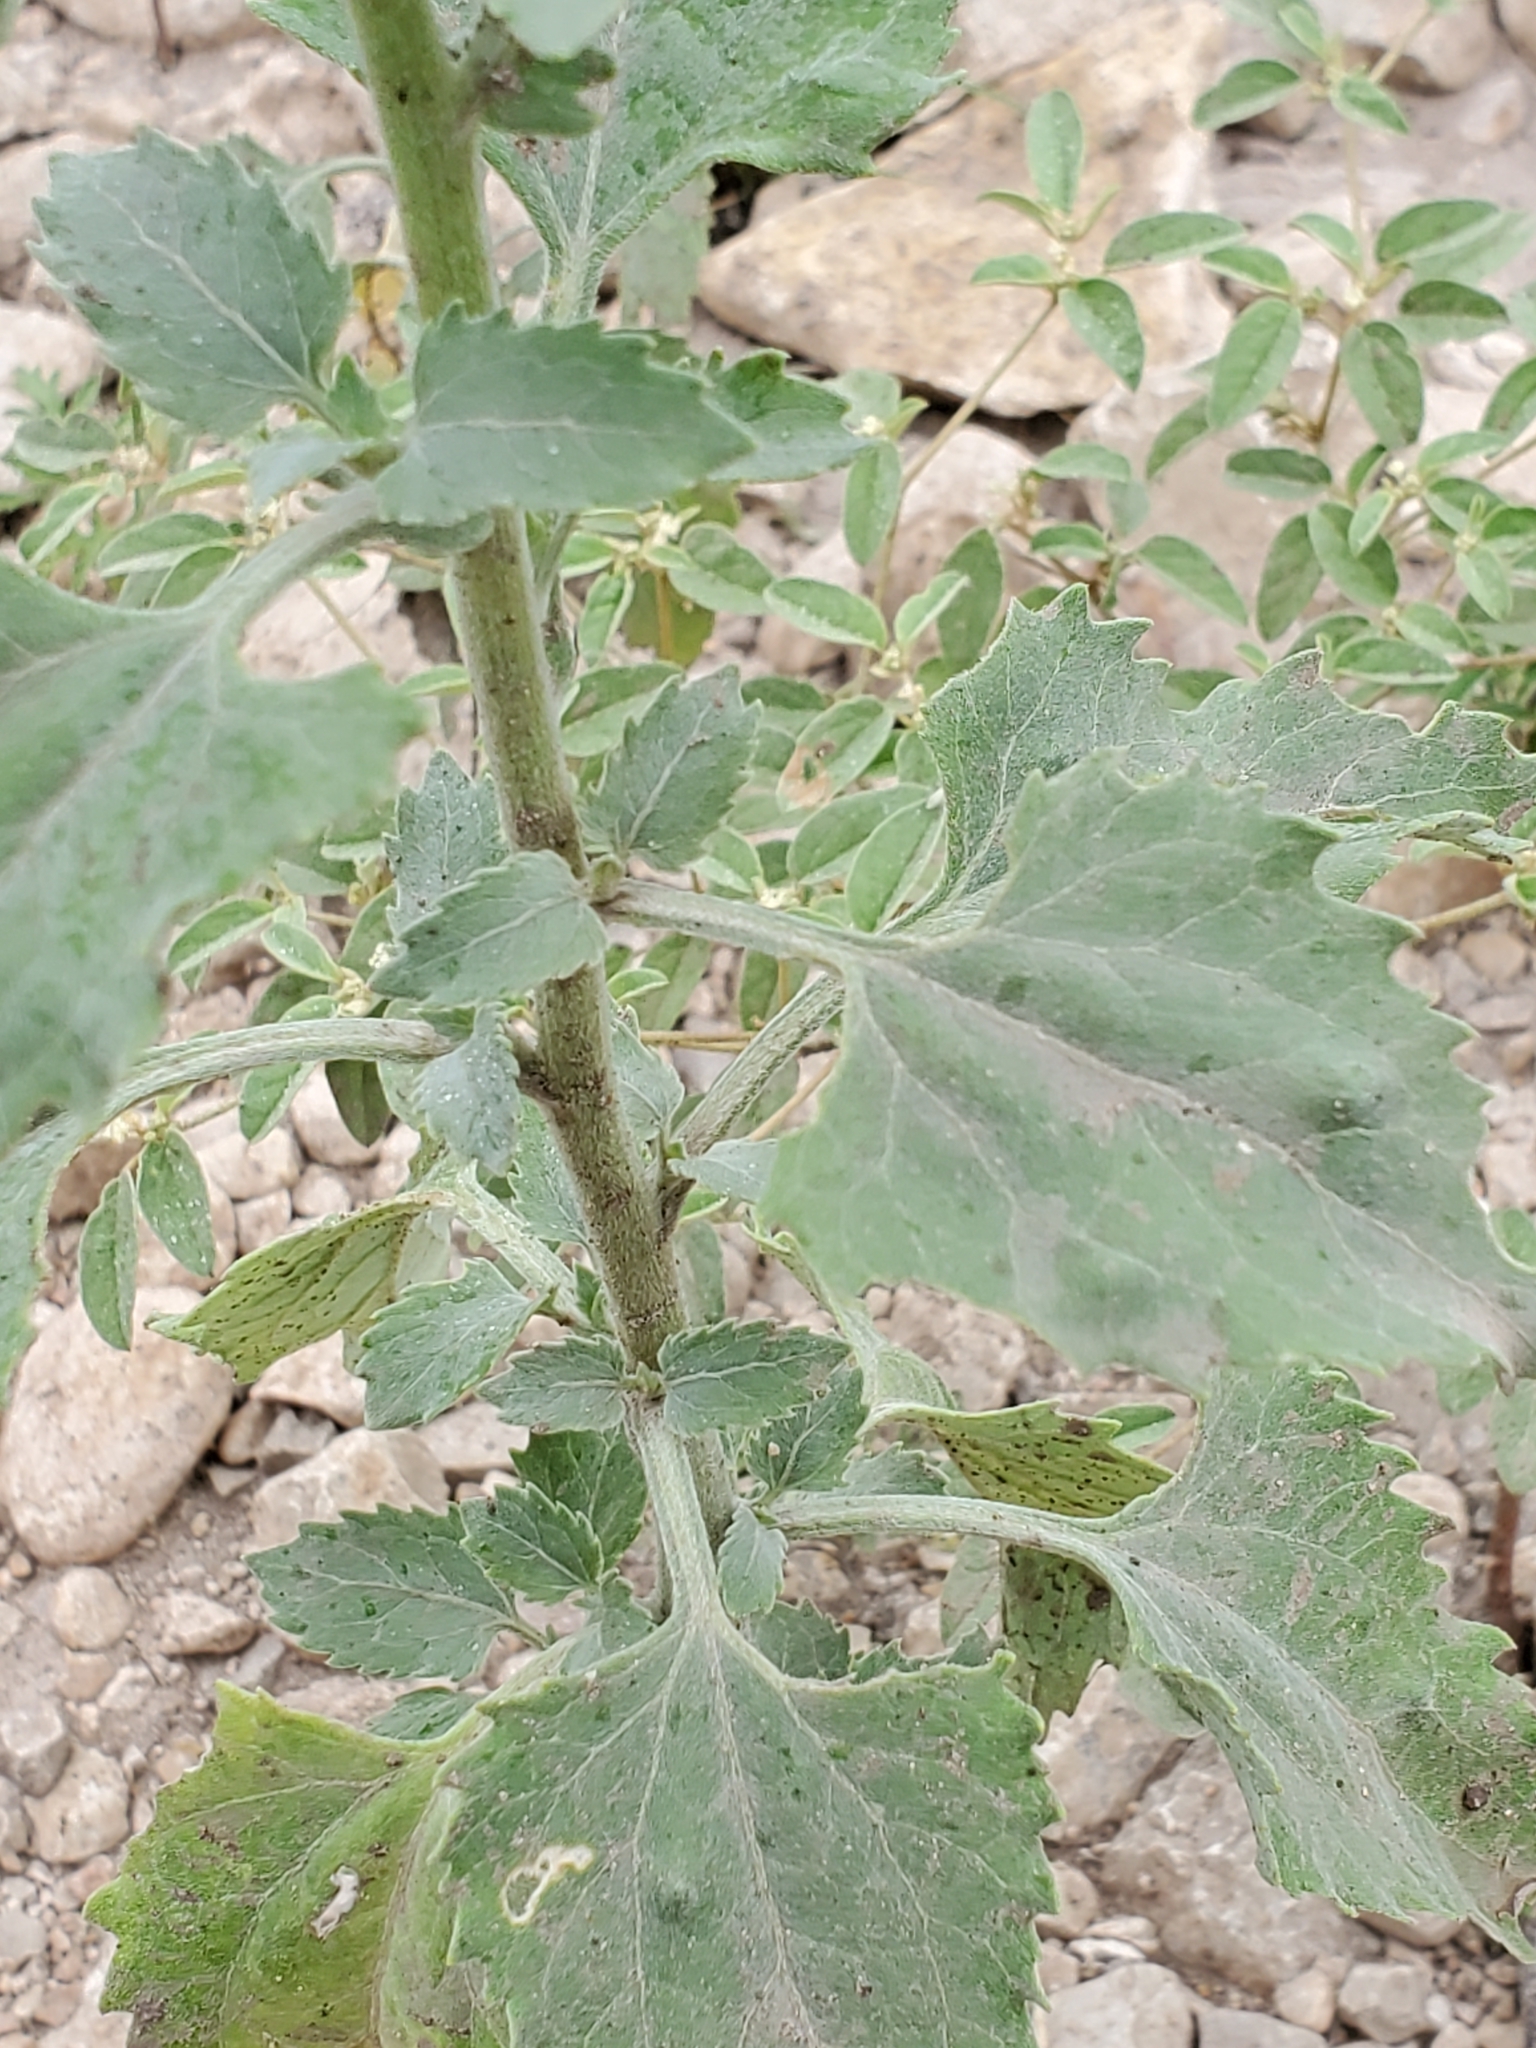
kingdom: Plantae
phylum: Tracheophyta
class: Magnoliopsida
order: Asterales
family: Asteraceae
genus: Verbesina
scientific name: Verbesina encelioides
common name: Golden crownbeard
